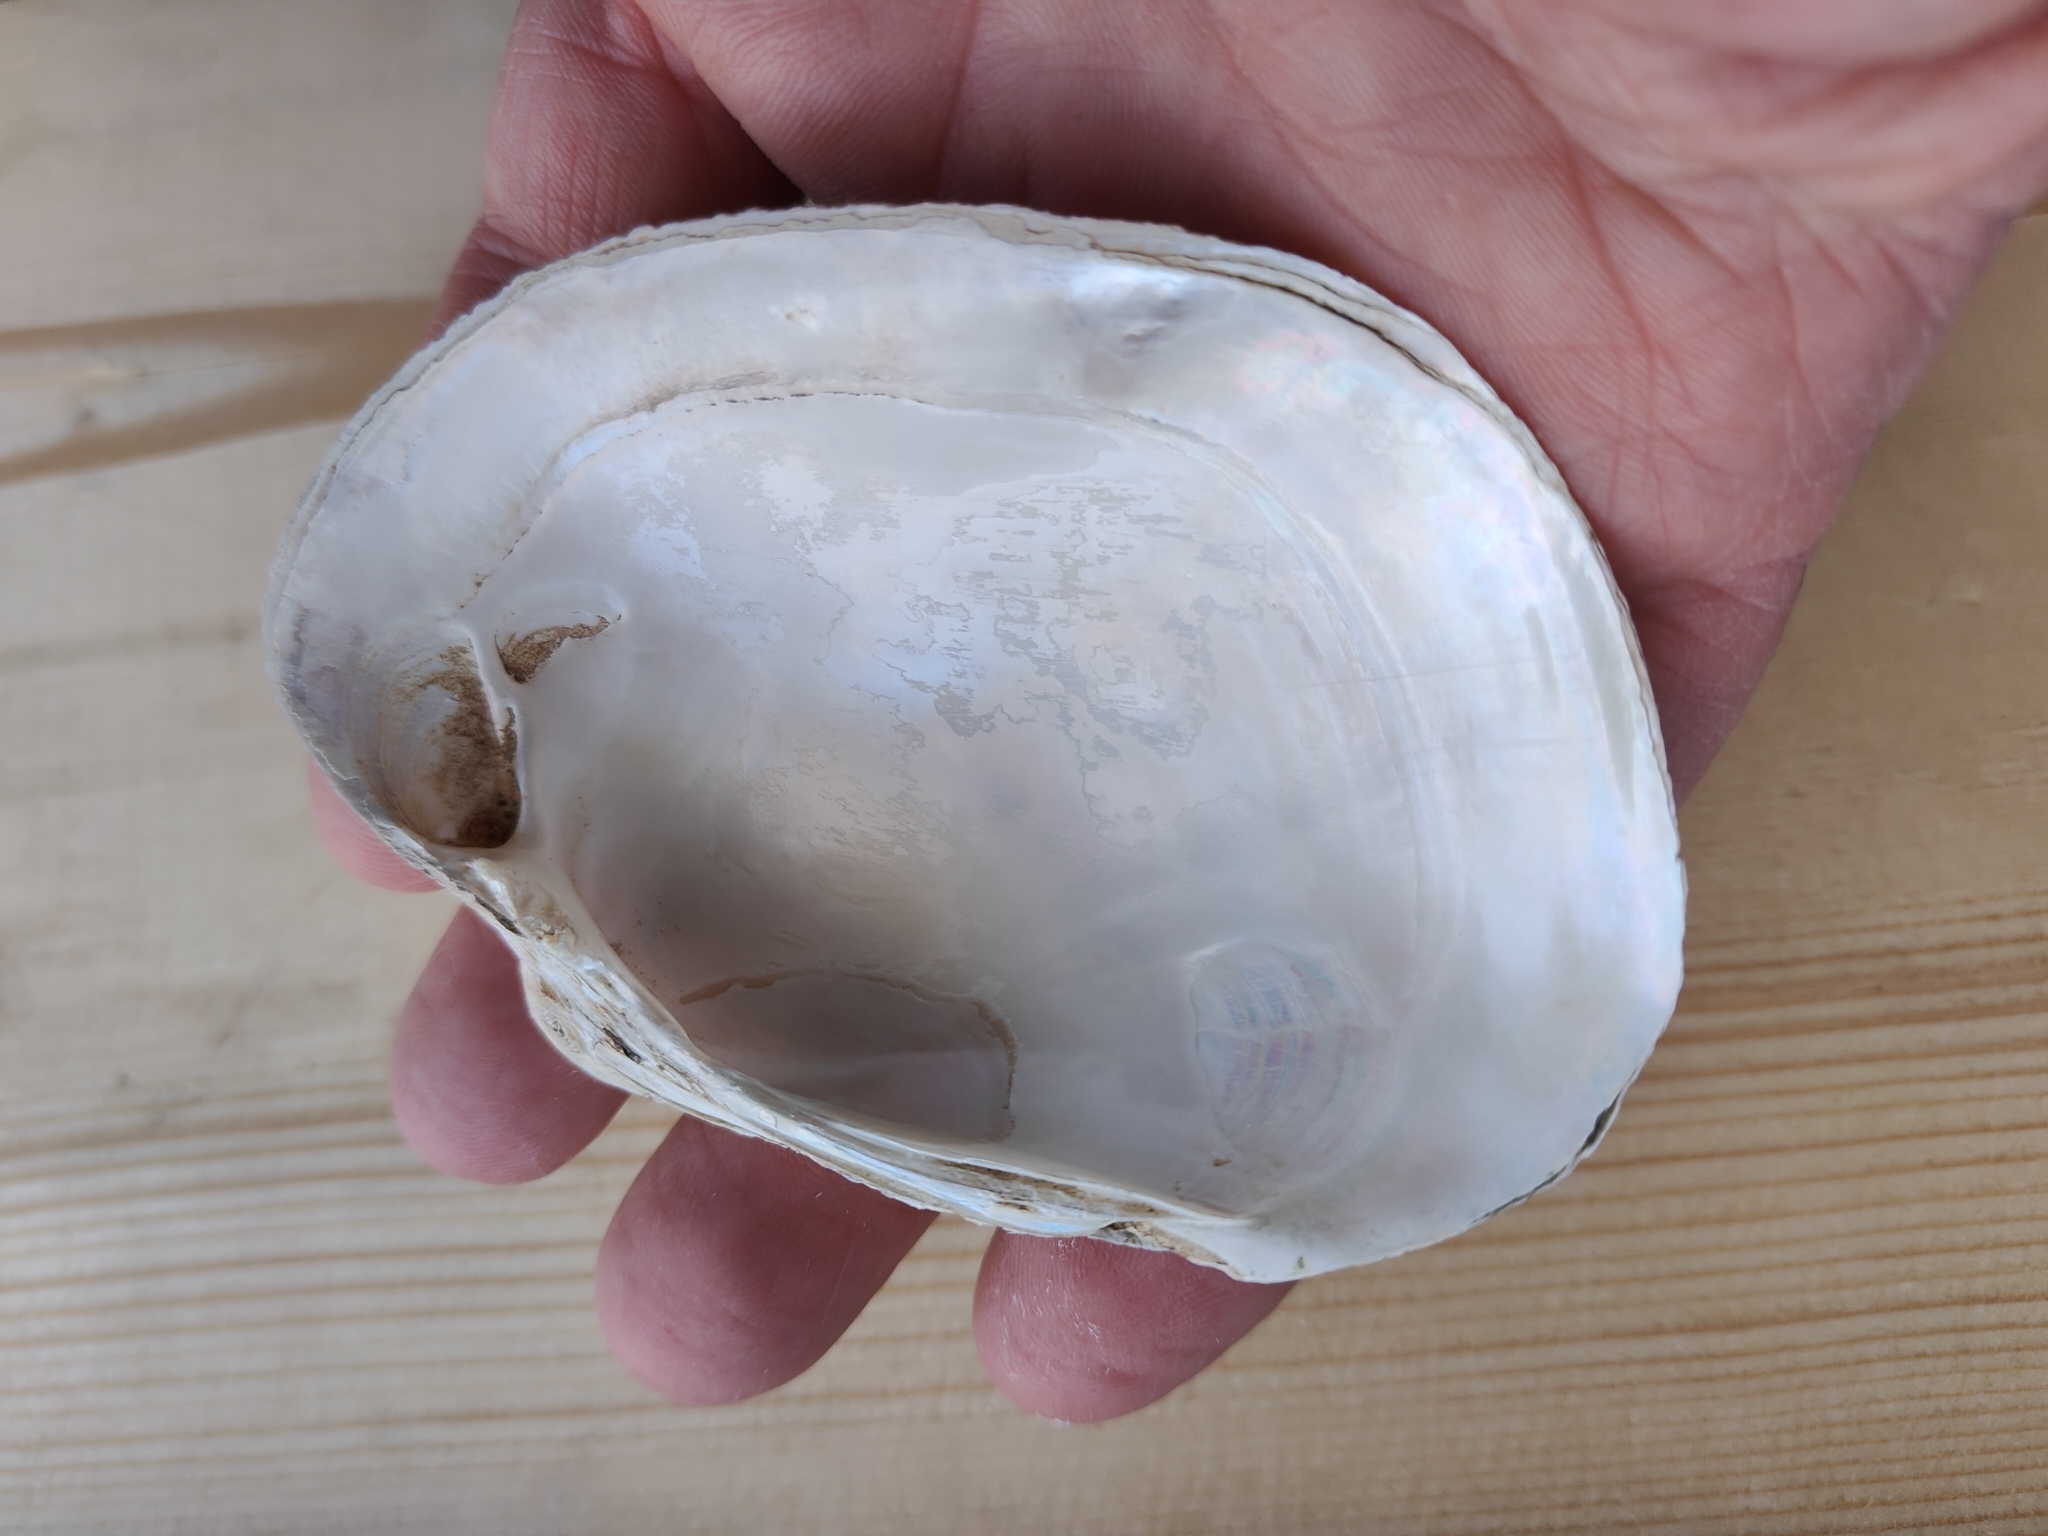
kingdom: Animalia
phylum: Mollusca
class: Bivalvia
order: Unionida
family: Unionidae
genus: Lampsilis
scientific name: Lampsilis cardium
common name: Plain pocketbook
